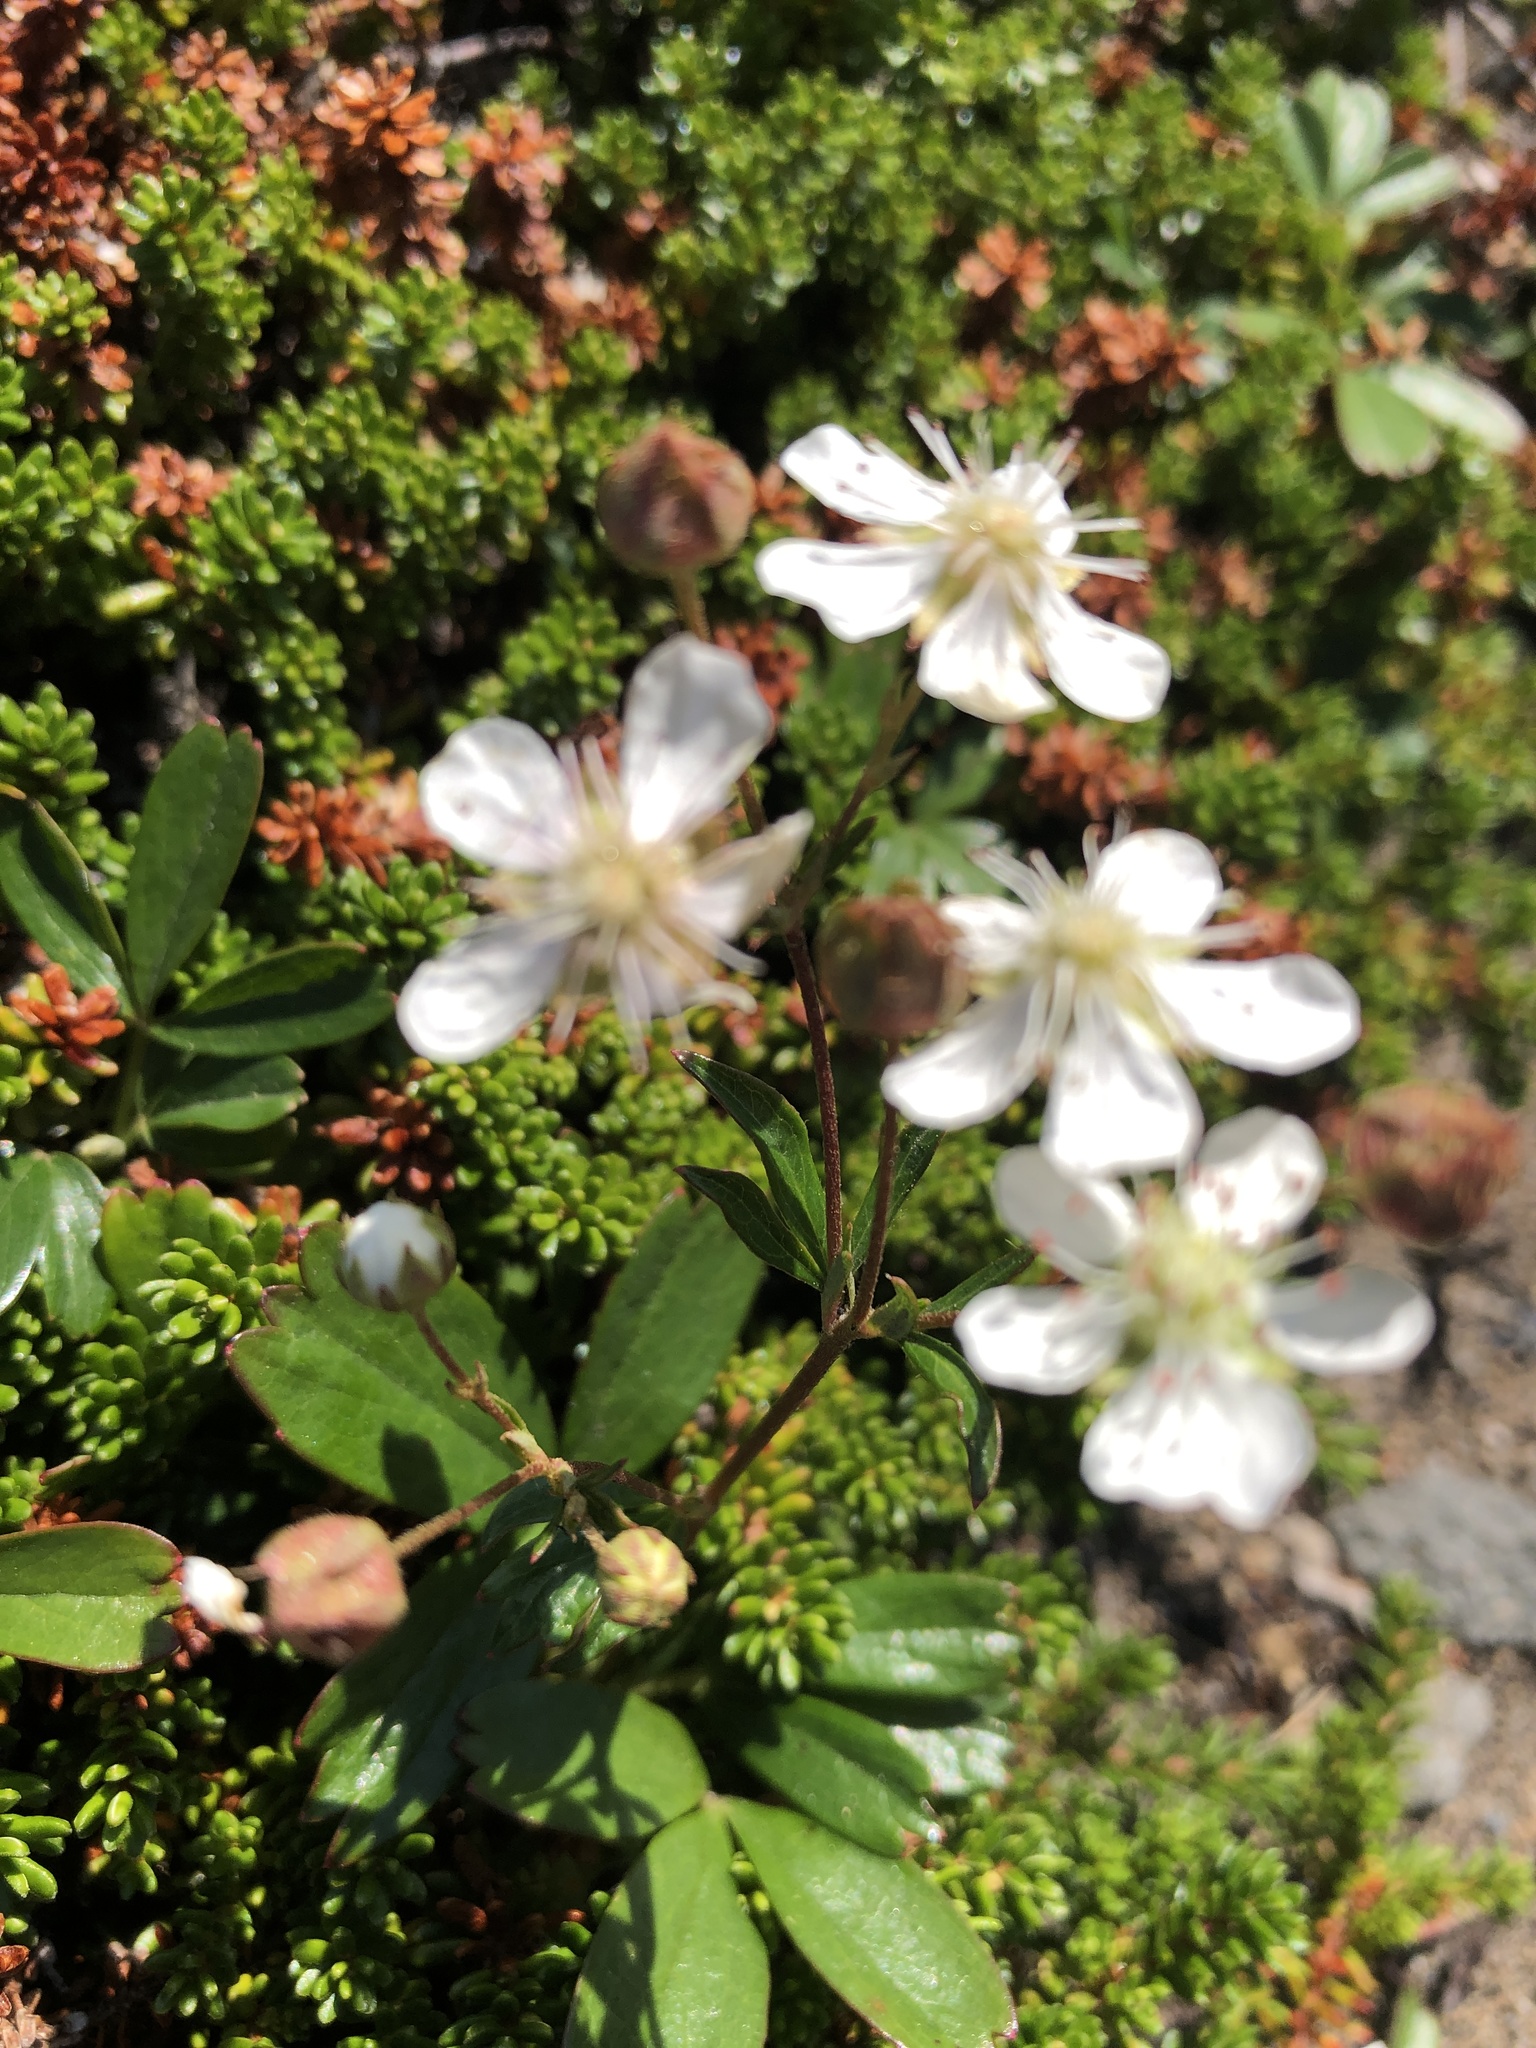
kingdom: Plantae
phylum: Tracheophyta
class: Magnoliopsida
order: Rosales
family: Rosaceae
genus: Sibbaldia
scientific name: Sibbaldia tridentata
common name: Three-toothed cinquefoil
